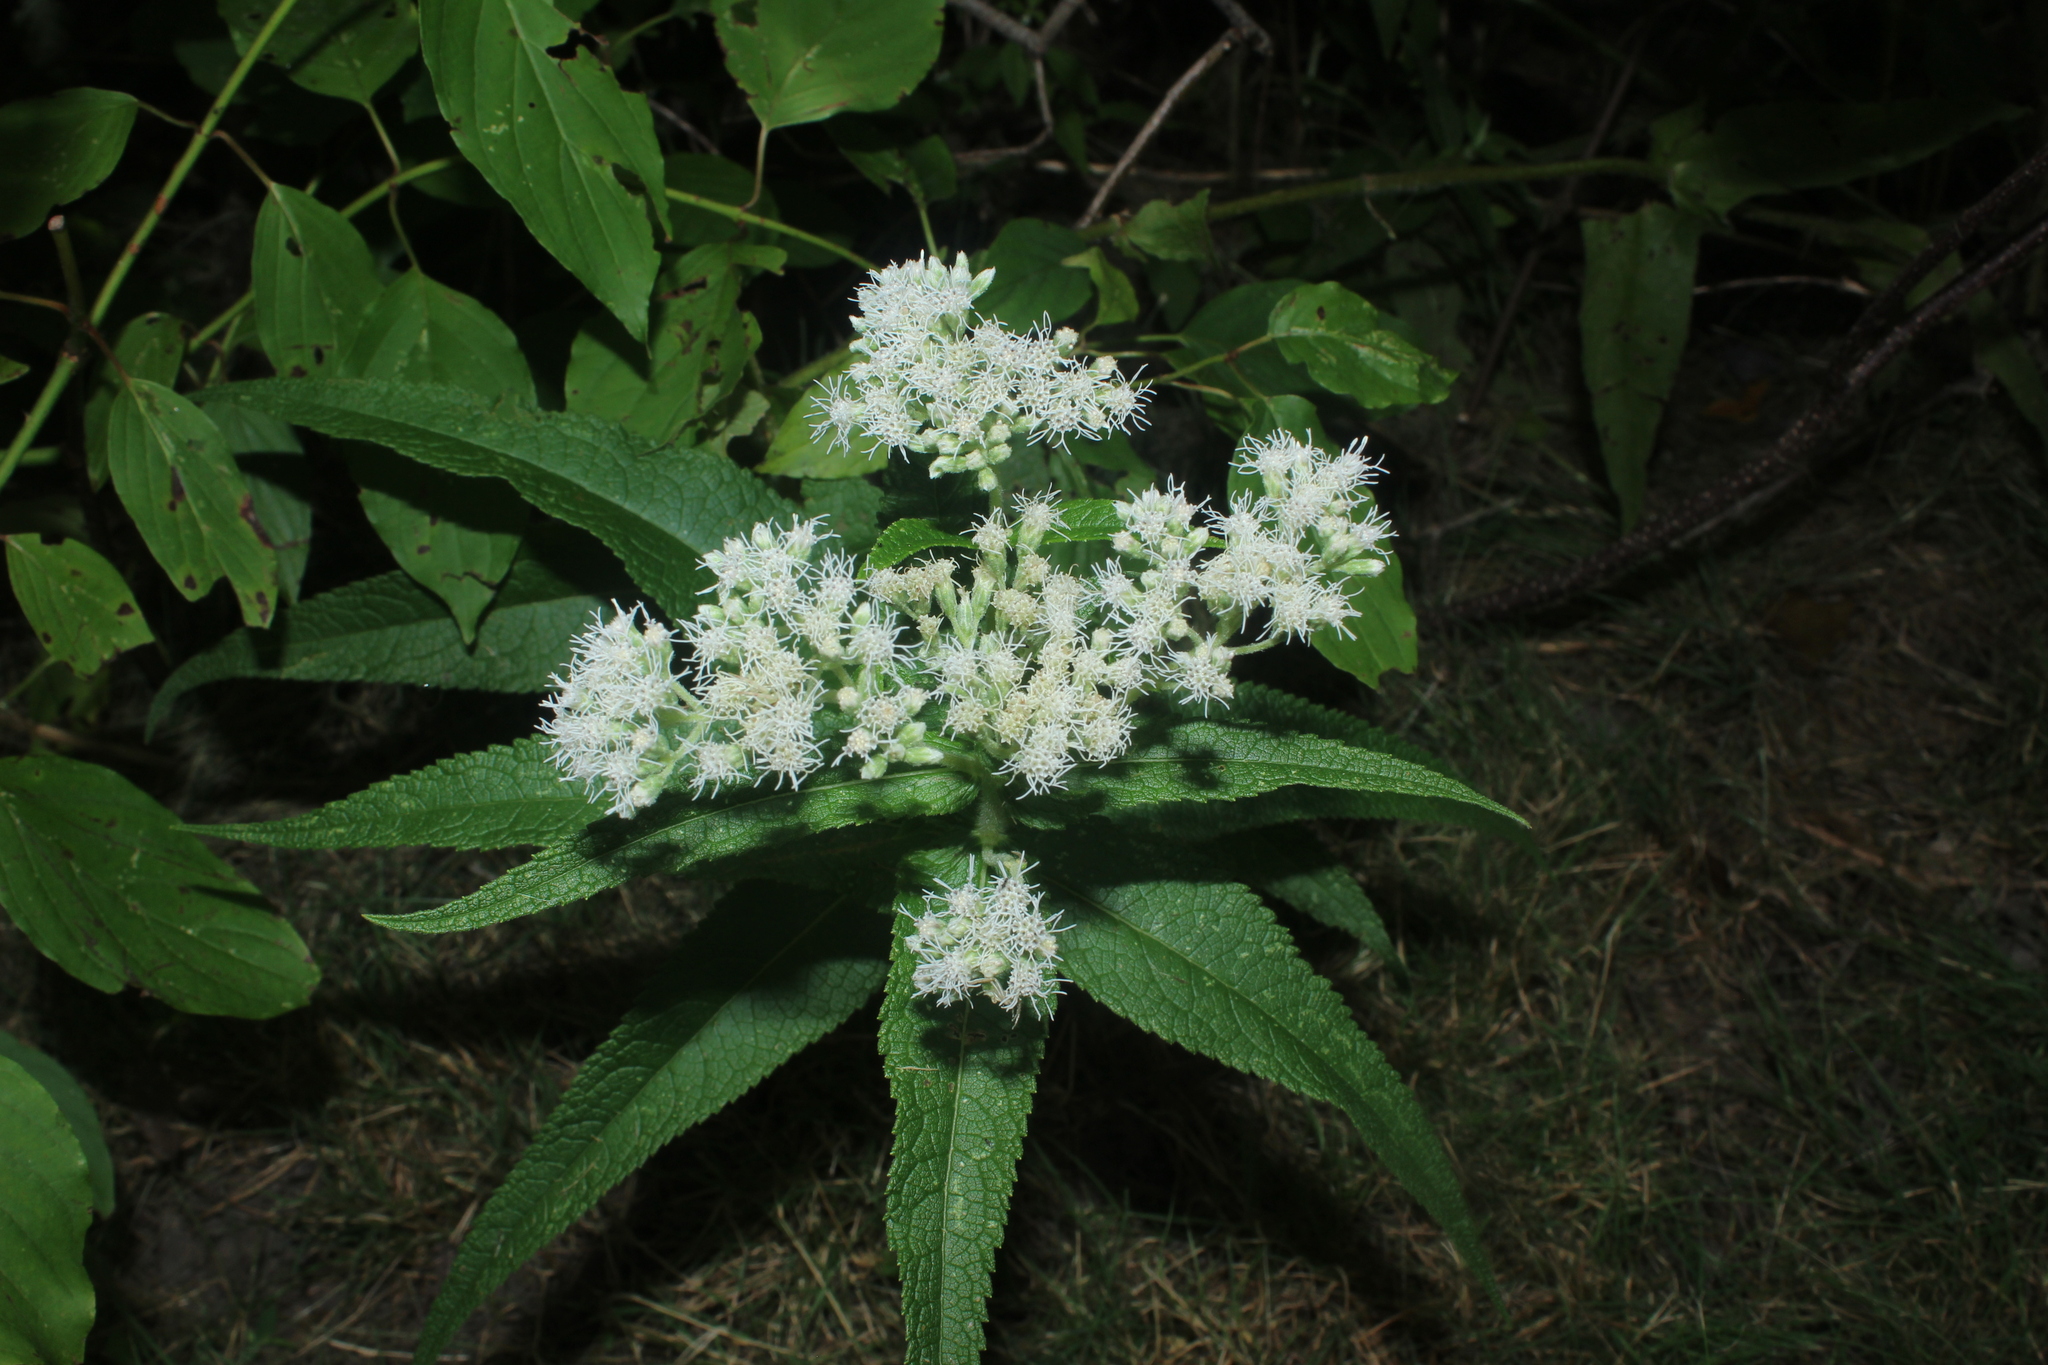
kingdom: Plantae
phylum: Tracheophyta
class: Magnoliopsida
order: Asterales
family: Asteraceae
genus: Eupatorium
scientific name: Eupatorium perfoliatum
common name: Boneset
